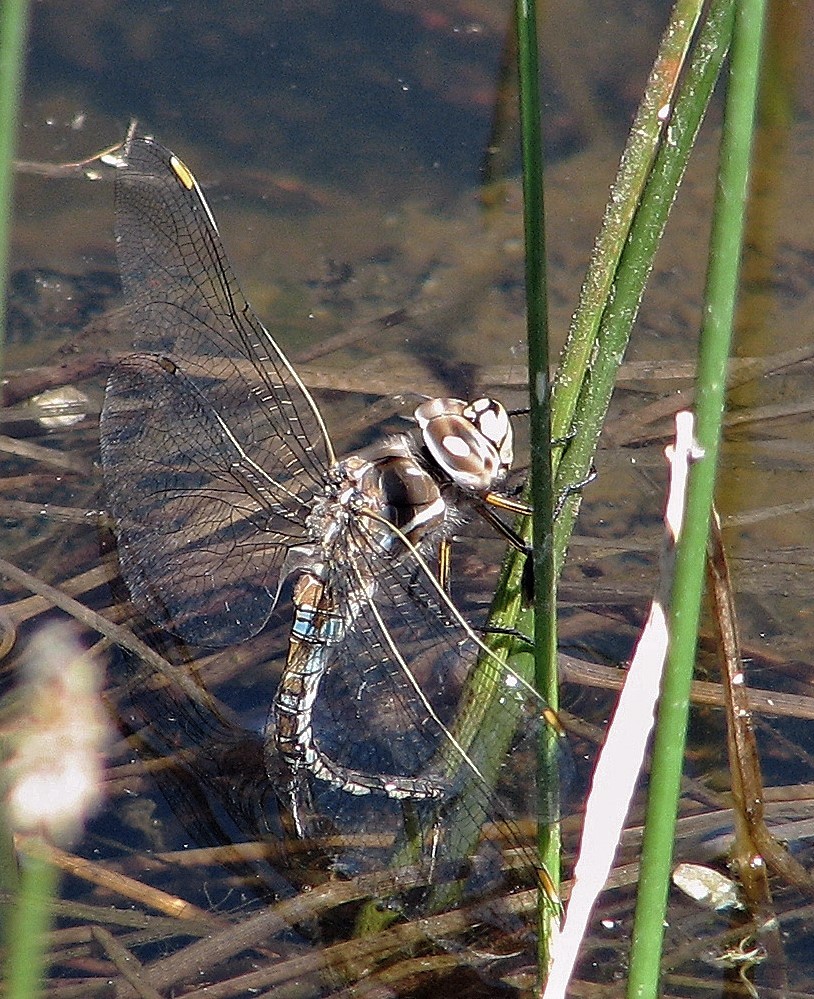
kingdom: Animalia
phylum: Arthropoda
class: Insecta
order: Odonata
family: Aeshnidae
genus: Rhionaeschna
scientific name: Rhionaeschna absoluta
